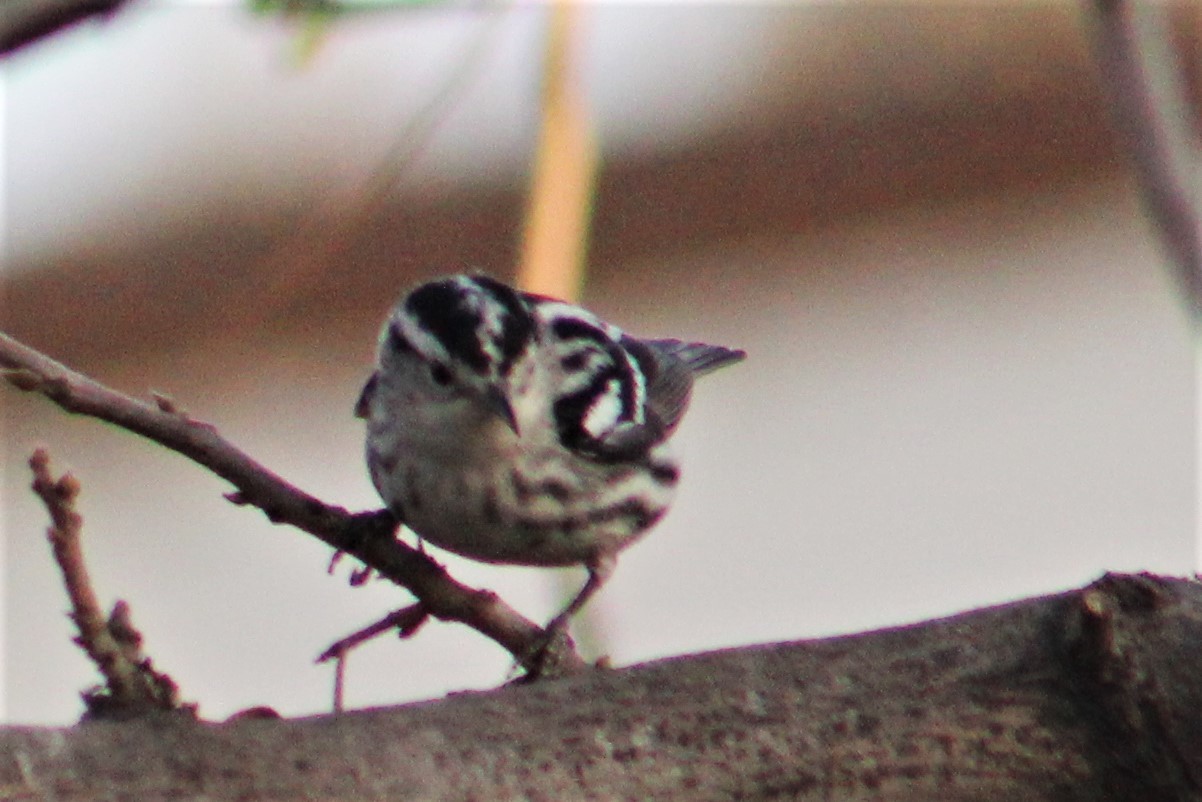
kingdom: Animalia
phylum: Chordata
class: Aves
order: Passeriformes
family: Parulidae
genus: Mniotilta
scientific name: Mniotilta varia
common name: Black-and-white warbler
